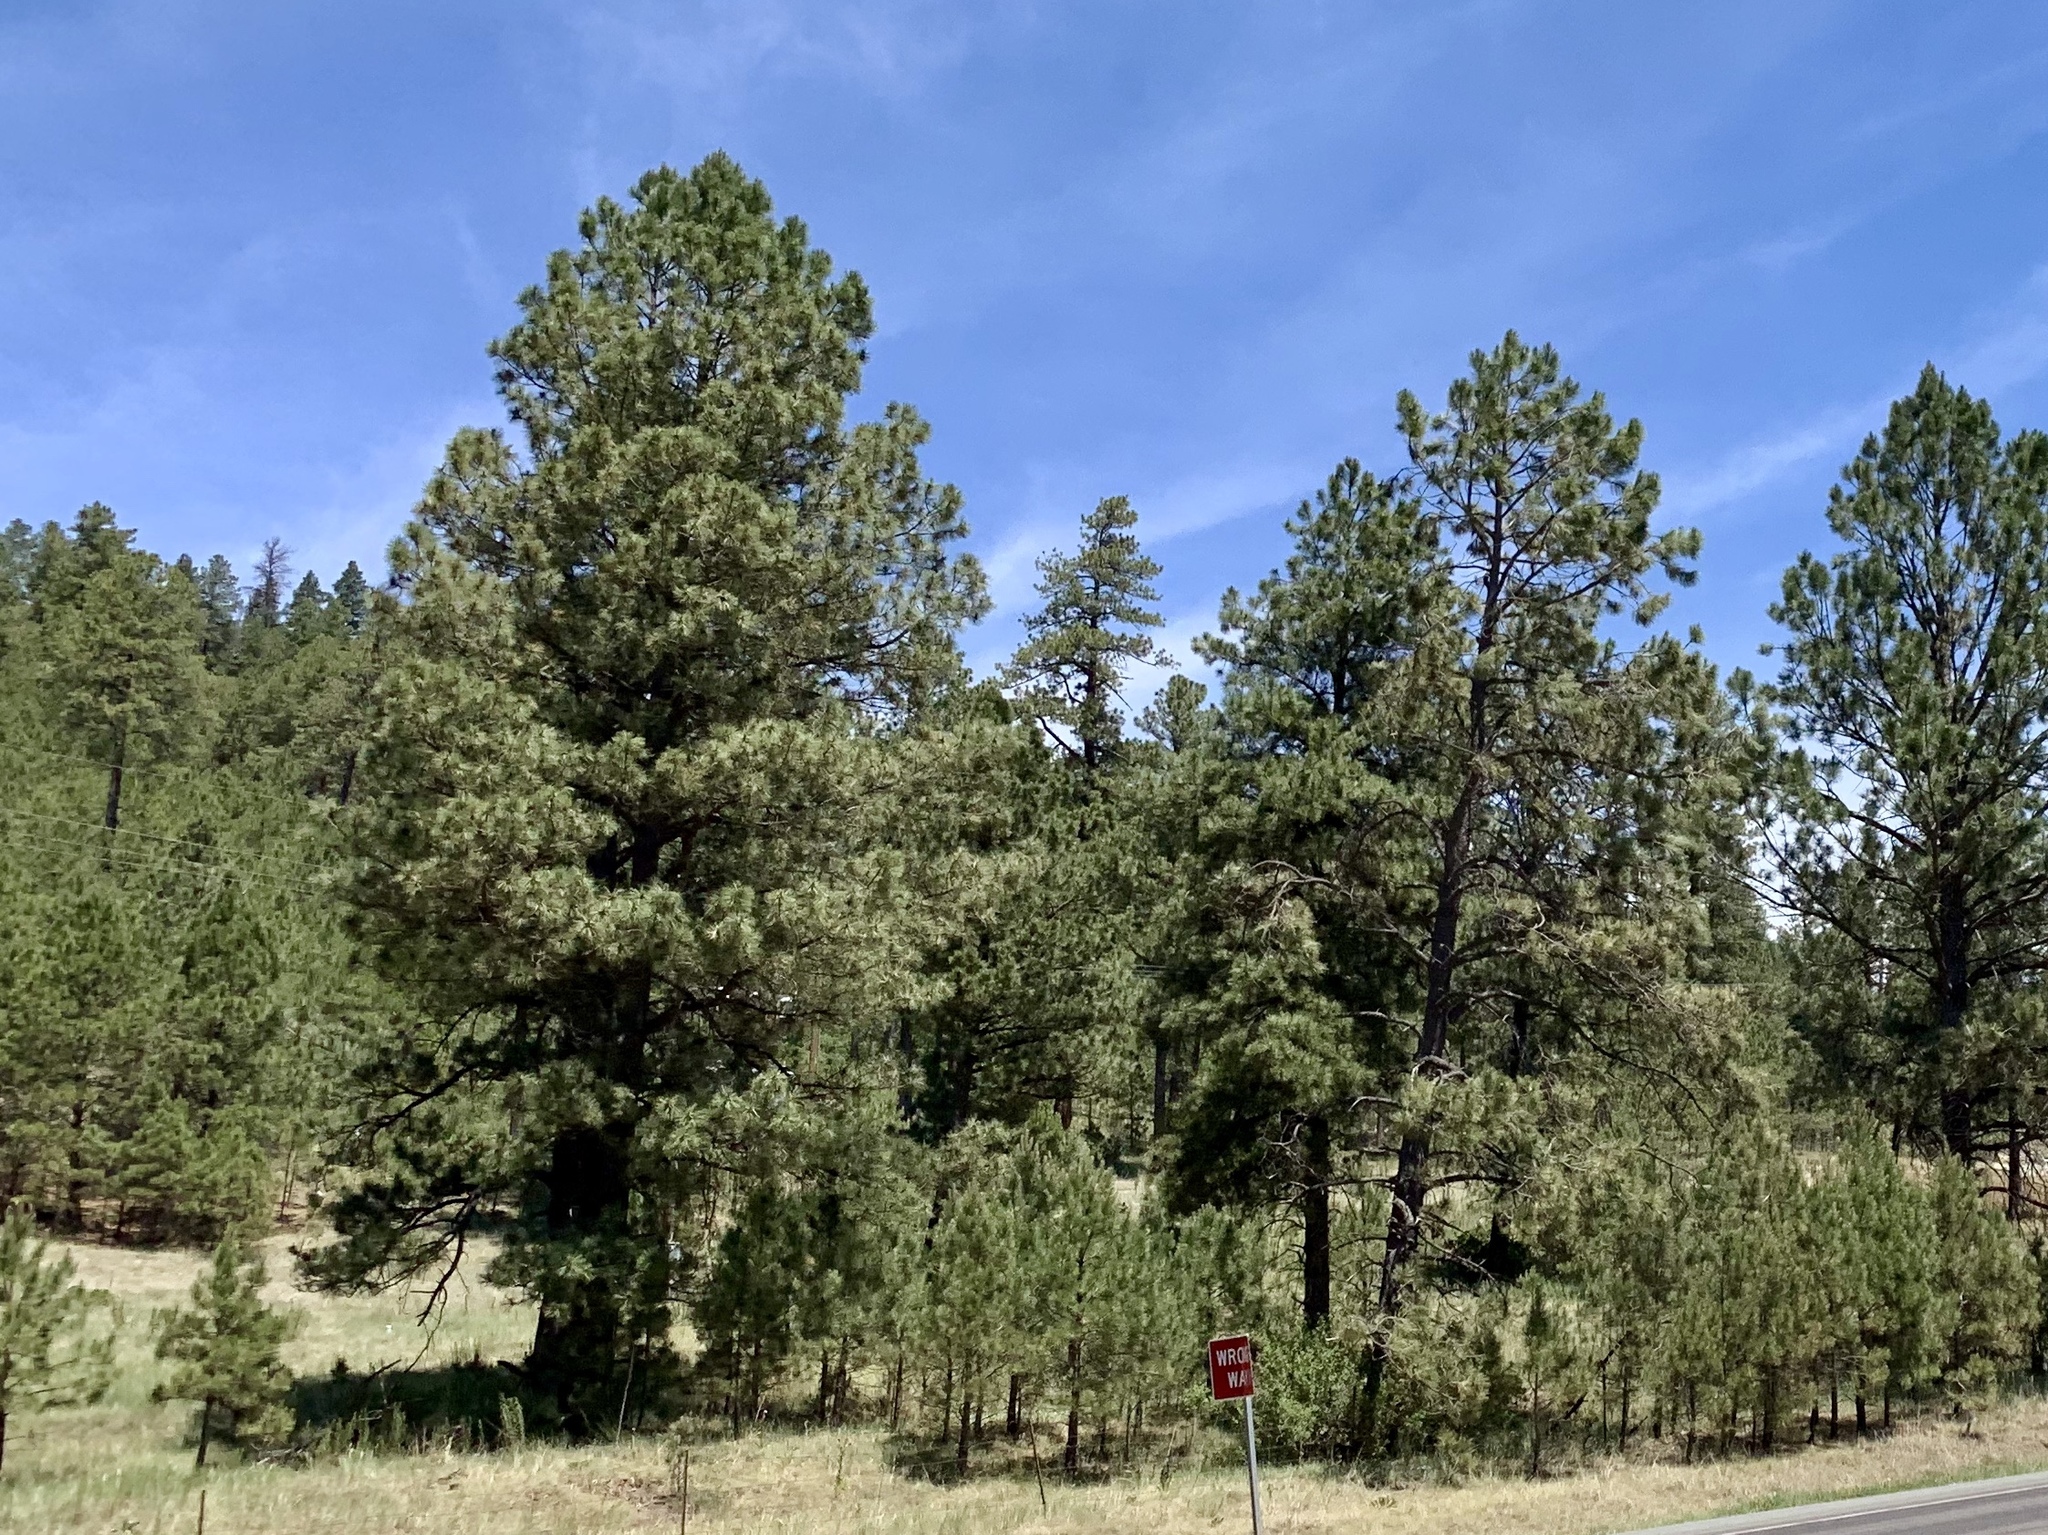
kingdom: Plantae
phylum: Tracheophyta
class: Pinopsida
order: Pinales
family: Pinaceae
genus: Pinus
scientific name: Pinus ponderosa
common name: Western yellow-pine
